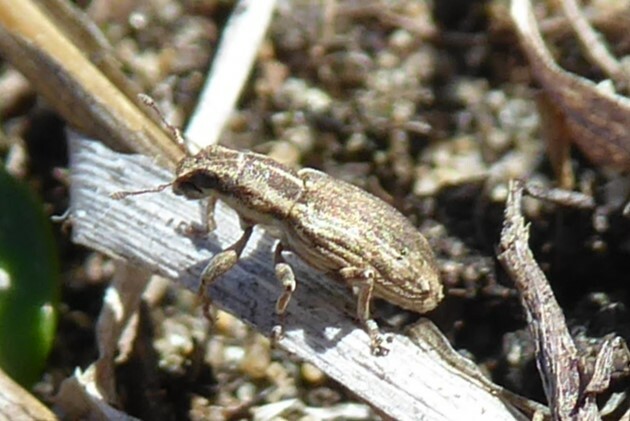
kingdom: Animalia
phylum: Arthropoda
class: Insecta
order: Coleoptera
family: Curculionidae
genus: Sitona
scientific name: Sitona discoideus
